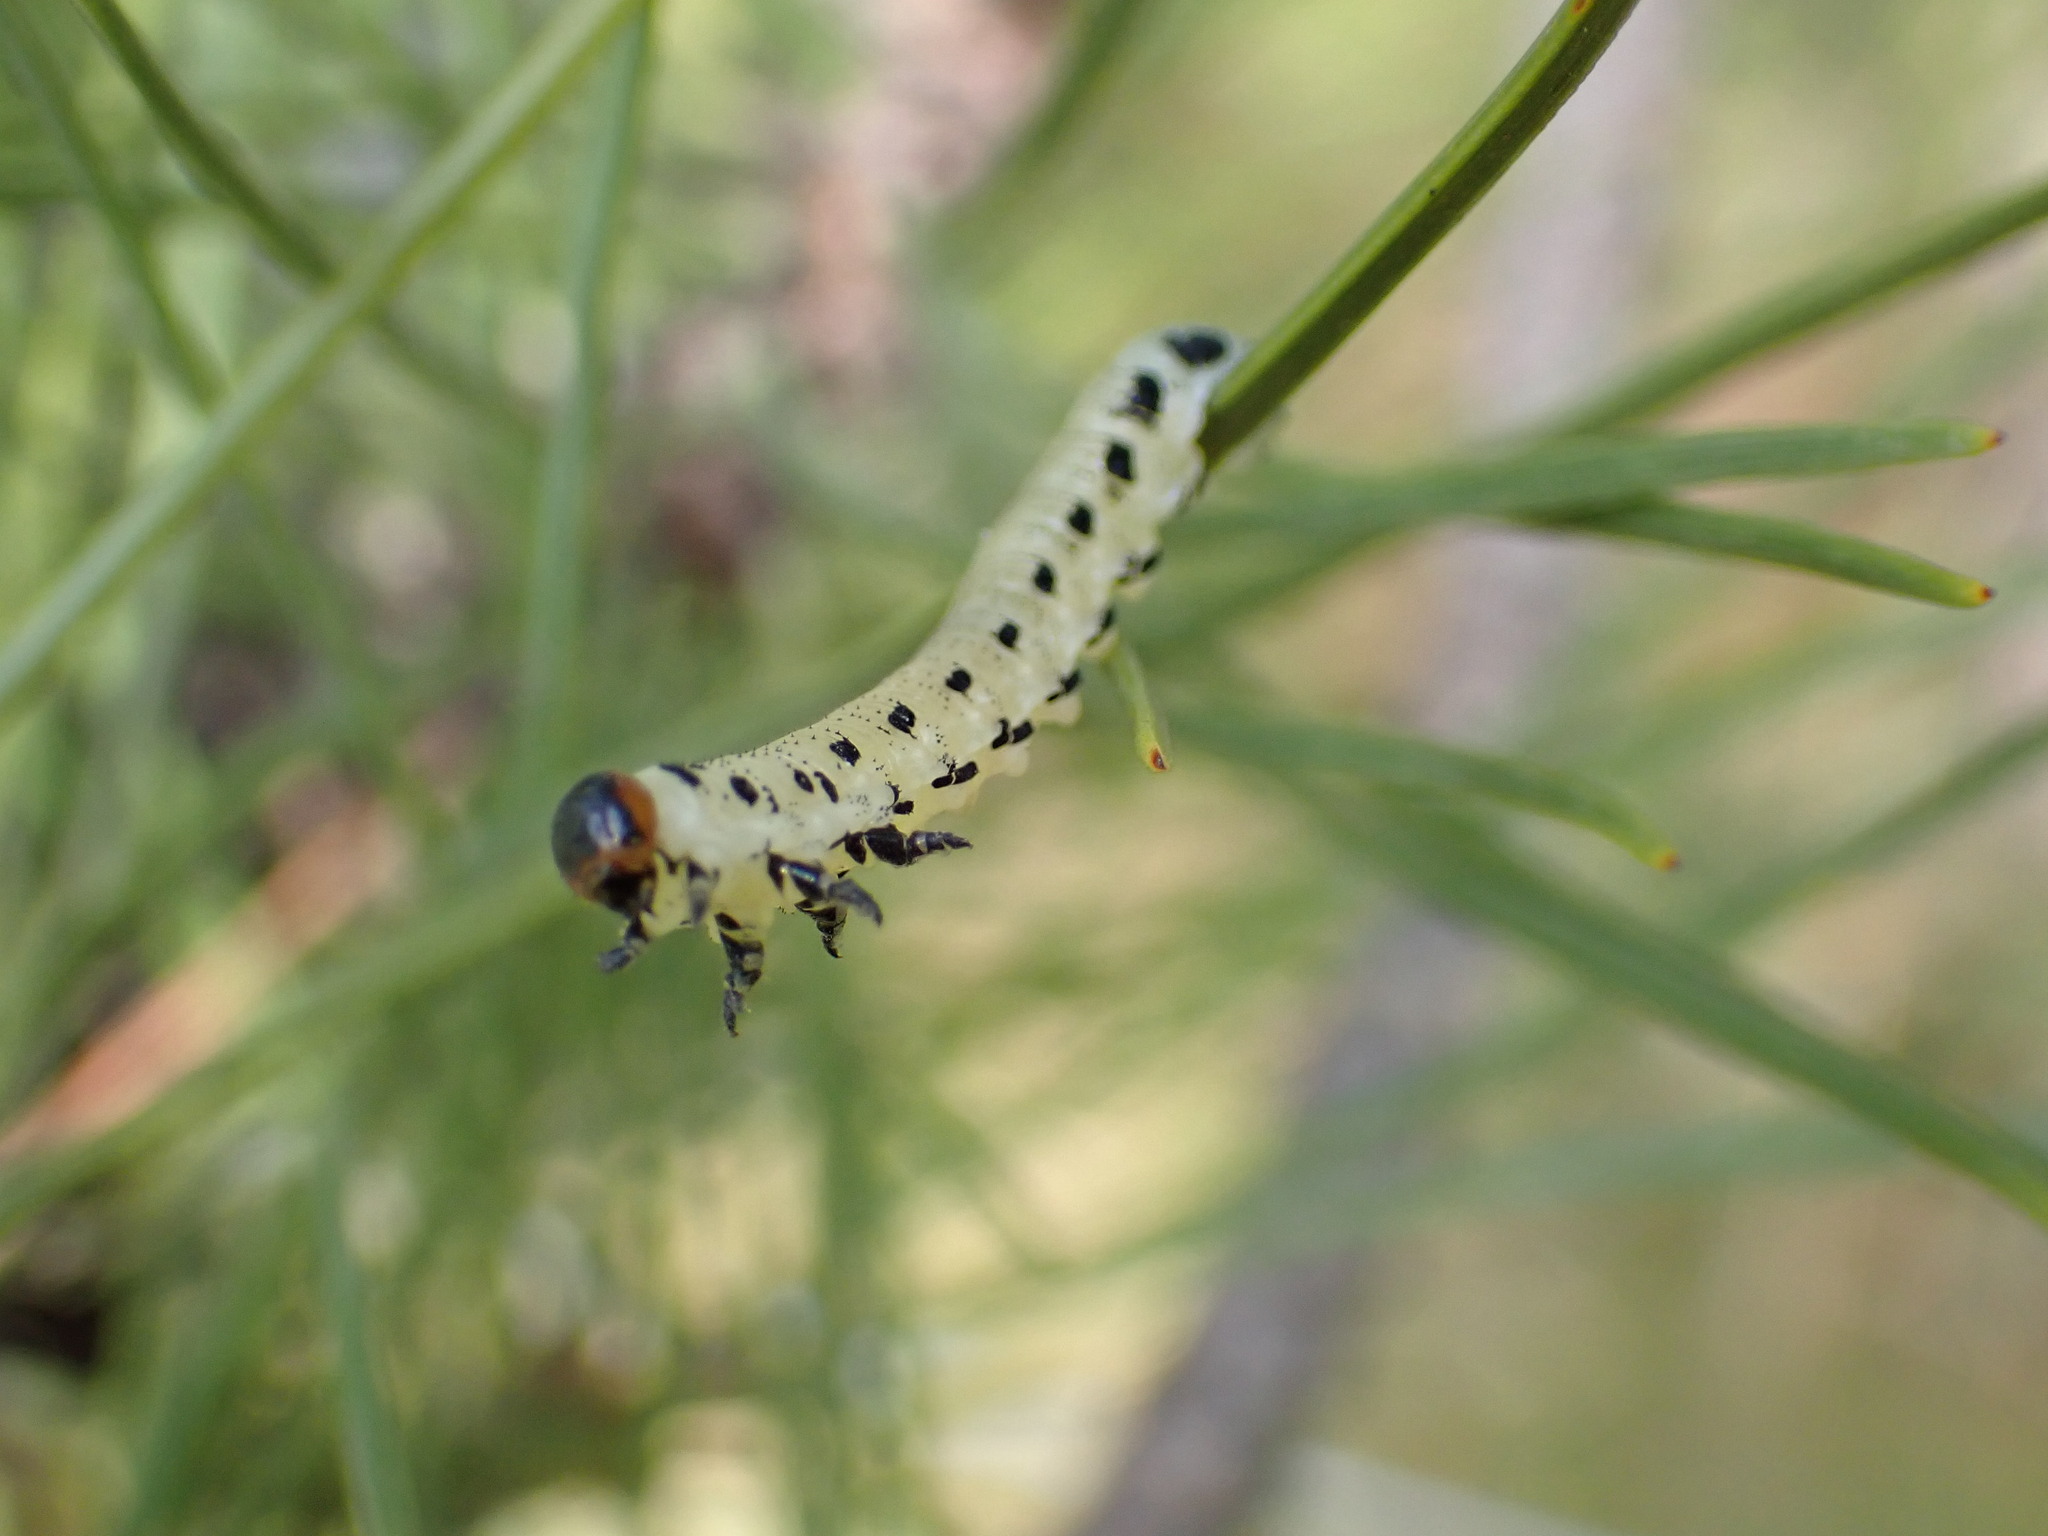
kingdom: Animalia
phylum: Arthropoda
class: Insecta
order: Hymenoptera
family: Diprionidae
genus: Diprion
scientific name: Diprion pini
